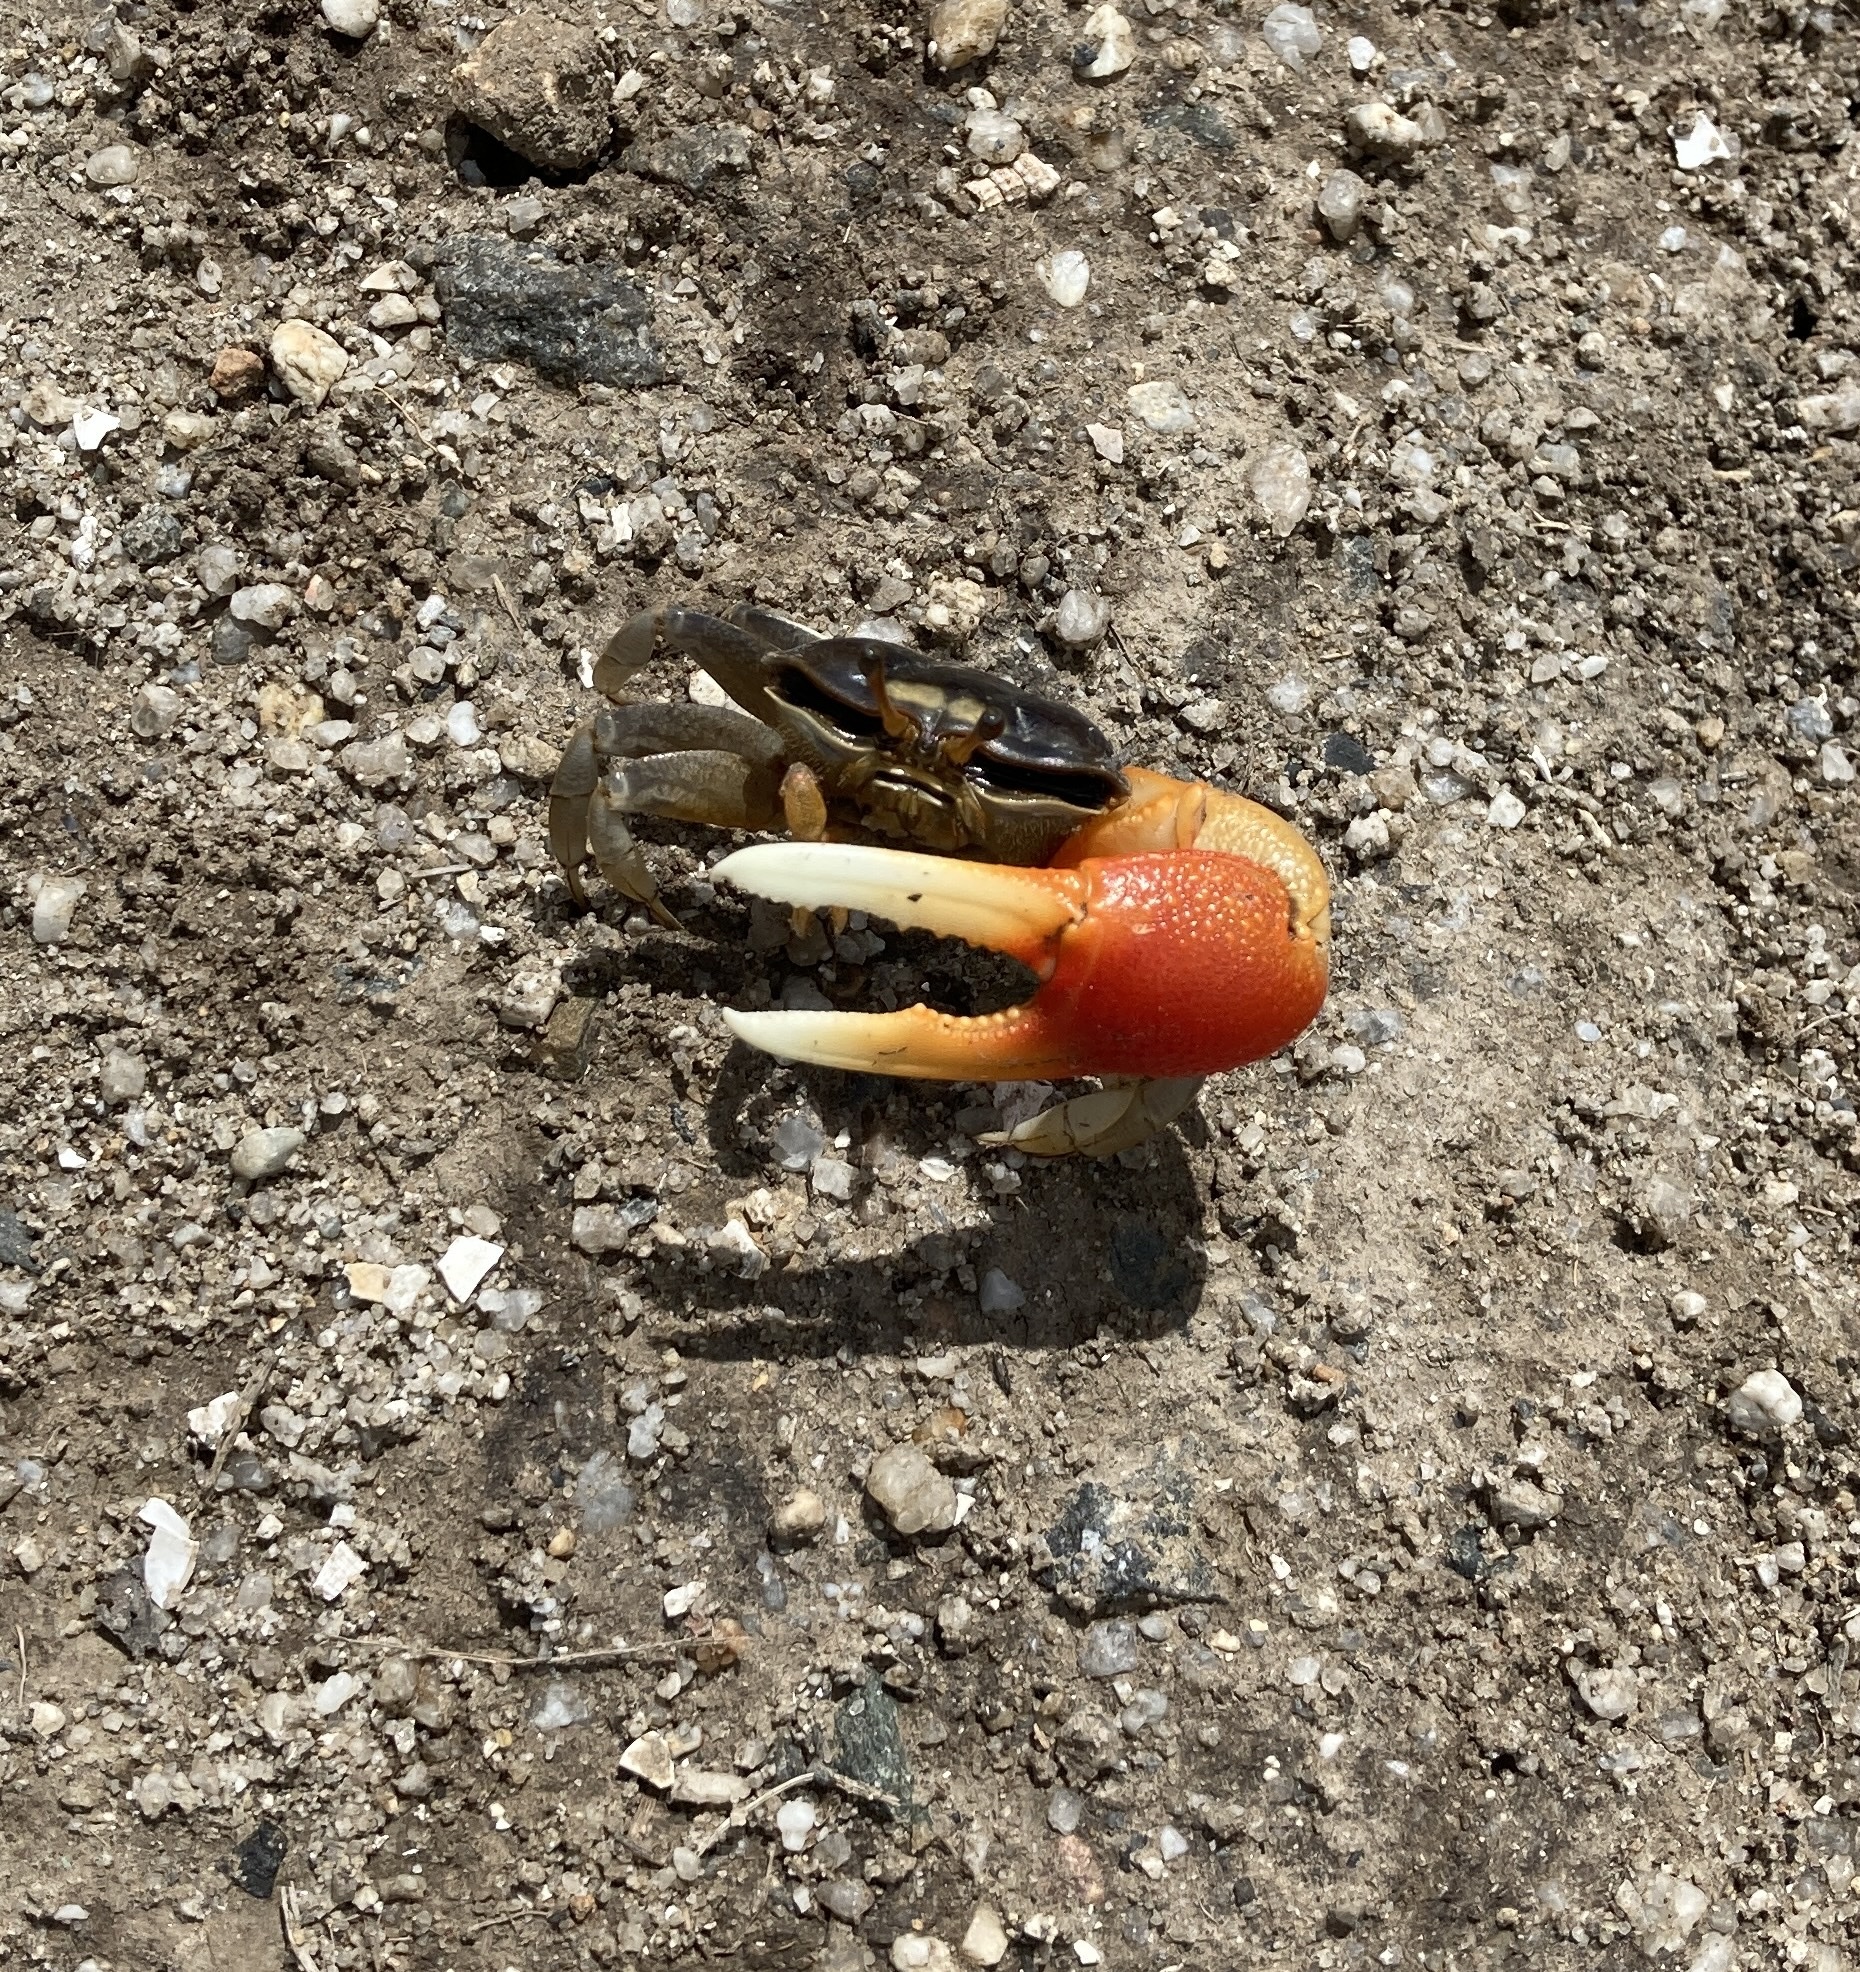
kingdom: Animalia
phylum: Arthropoda
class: Malacostraca
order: Decapoda
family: Ocypodidae
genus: Tubuca
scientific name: Tubuca coarctata
